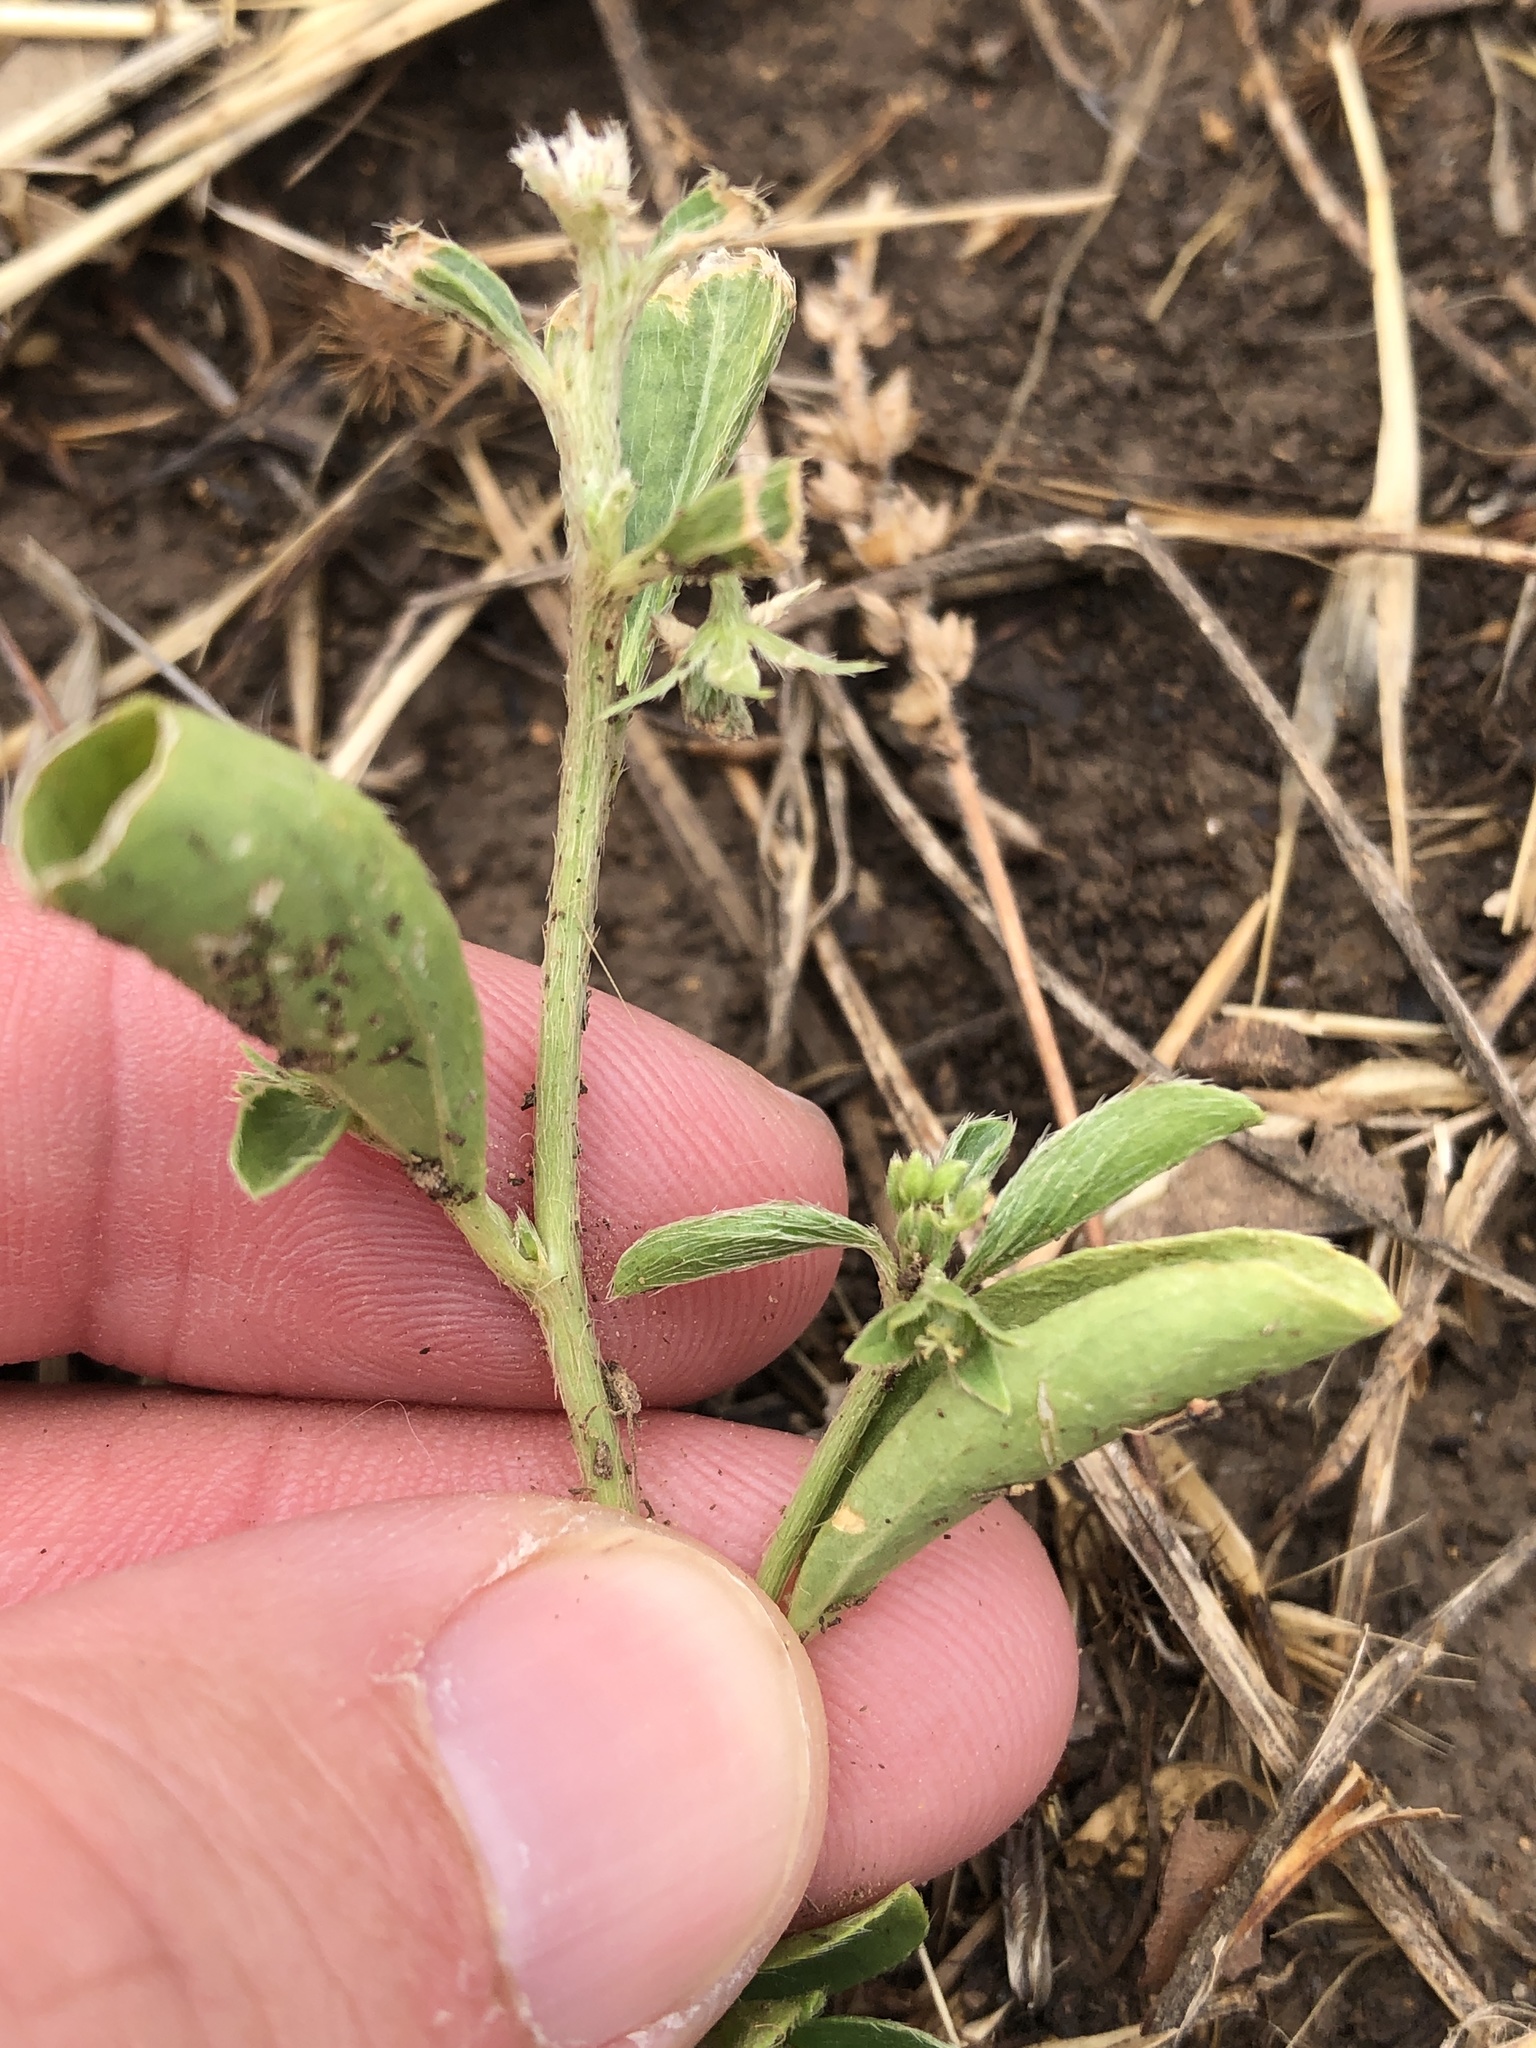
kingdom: Plantae
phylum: Tracheophyta
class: Magnoliopsida
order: Malpighiales
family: Euphorbiaceae
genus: Ditaxis
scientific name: Ditaxis humilis
